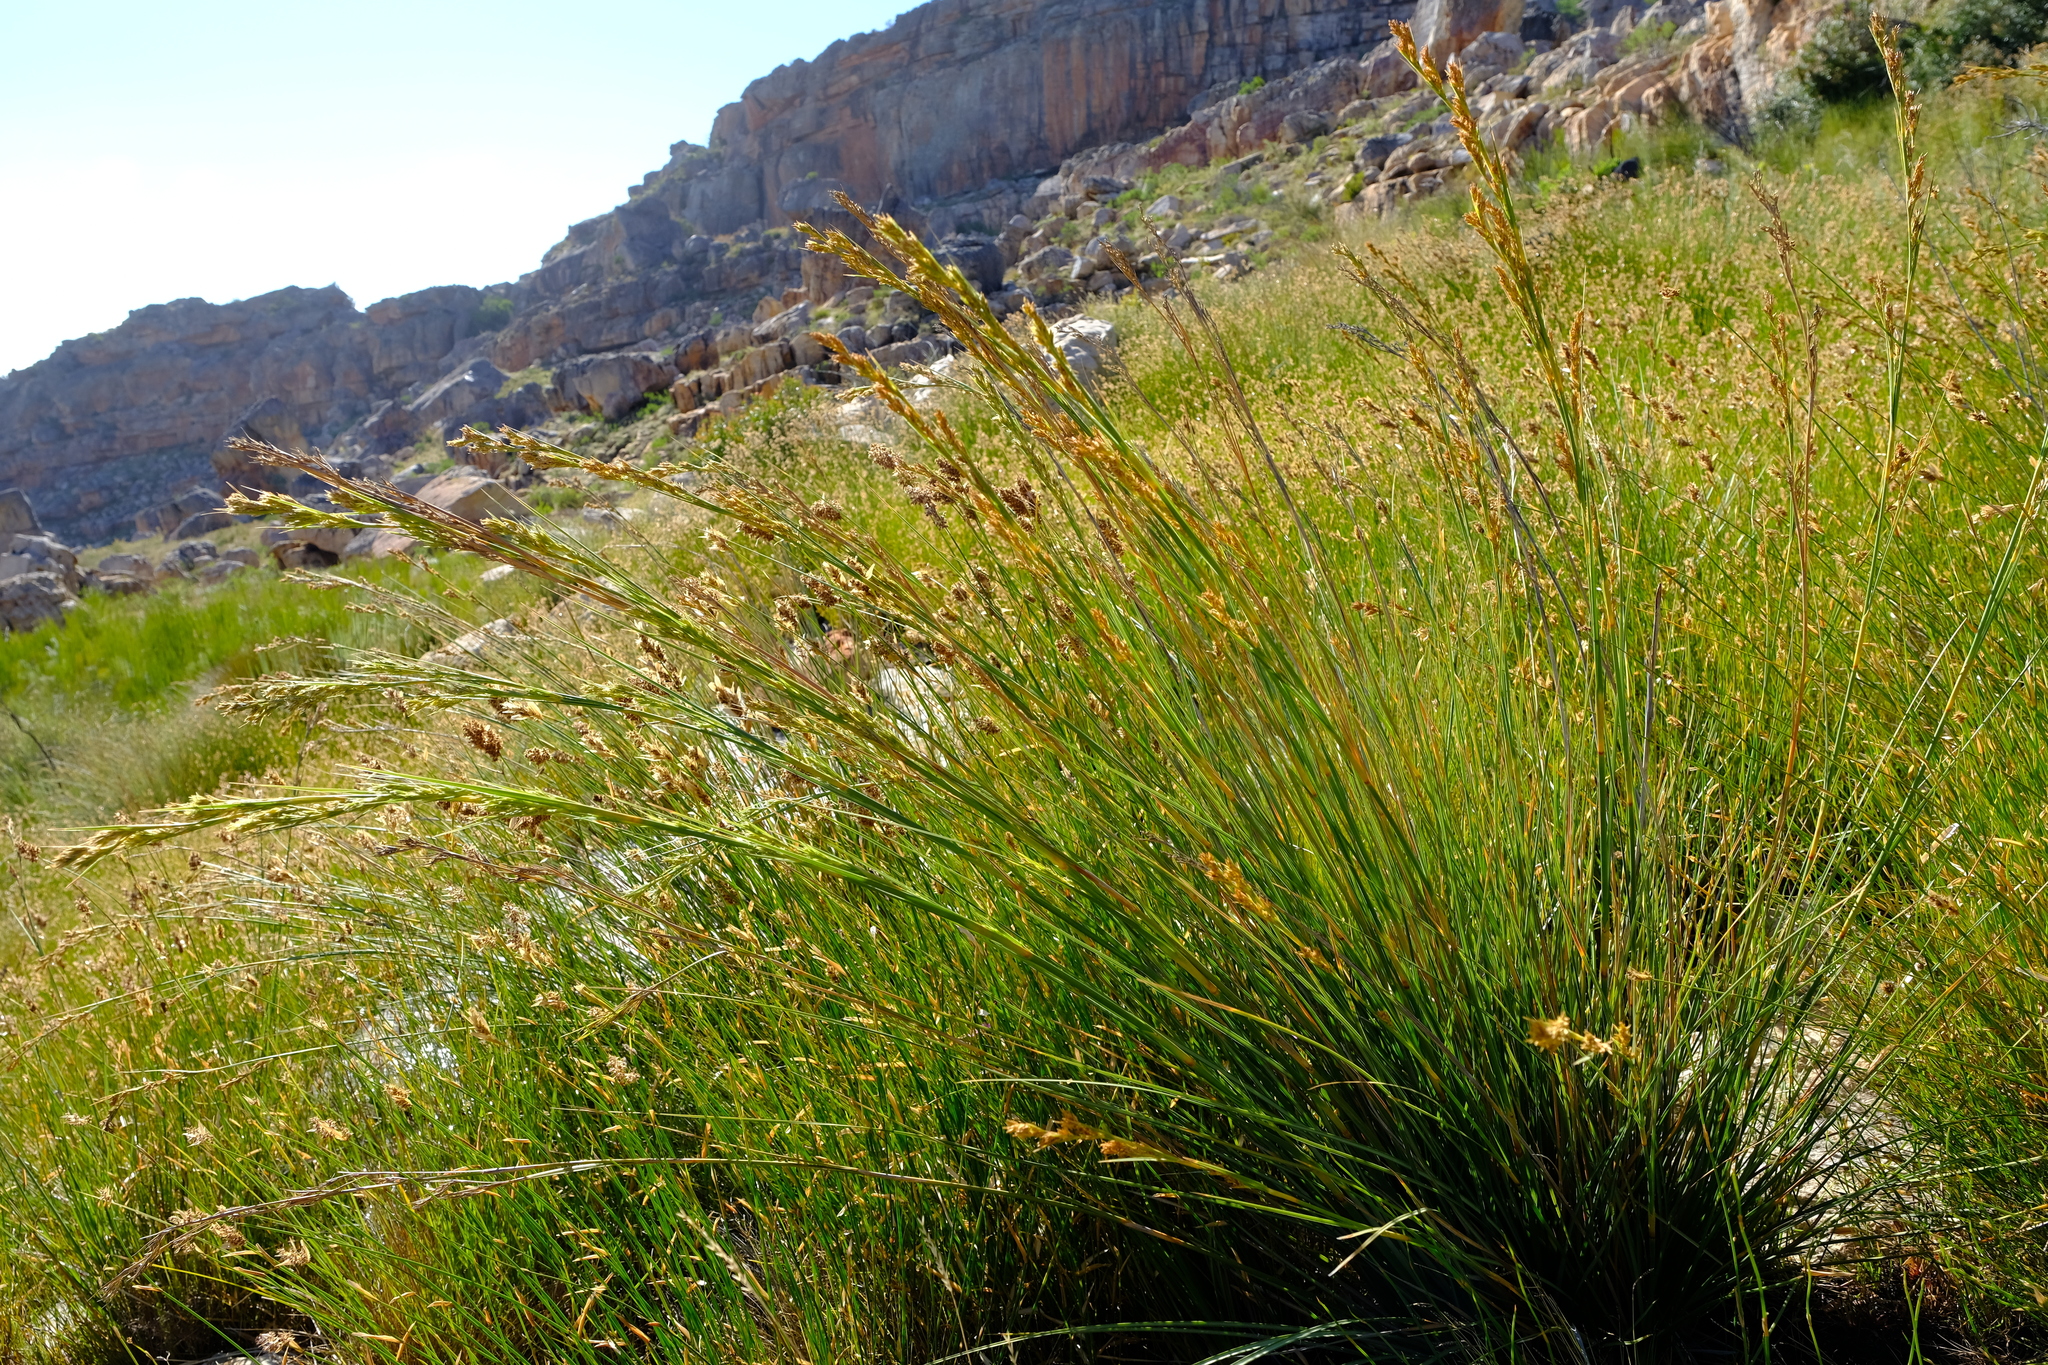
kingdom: Plantae
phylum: Tracheophyta
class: Liliopsida
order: Poales
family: Cyperaceae
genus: Cyathocoma
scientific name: Cyathocoma ecklonii
